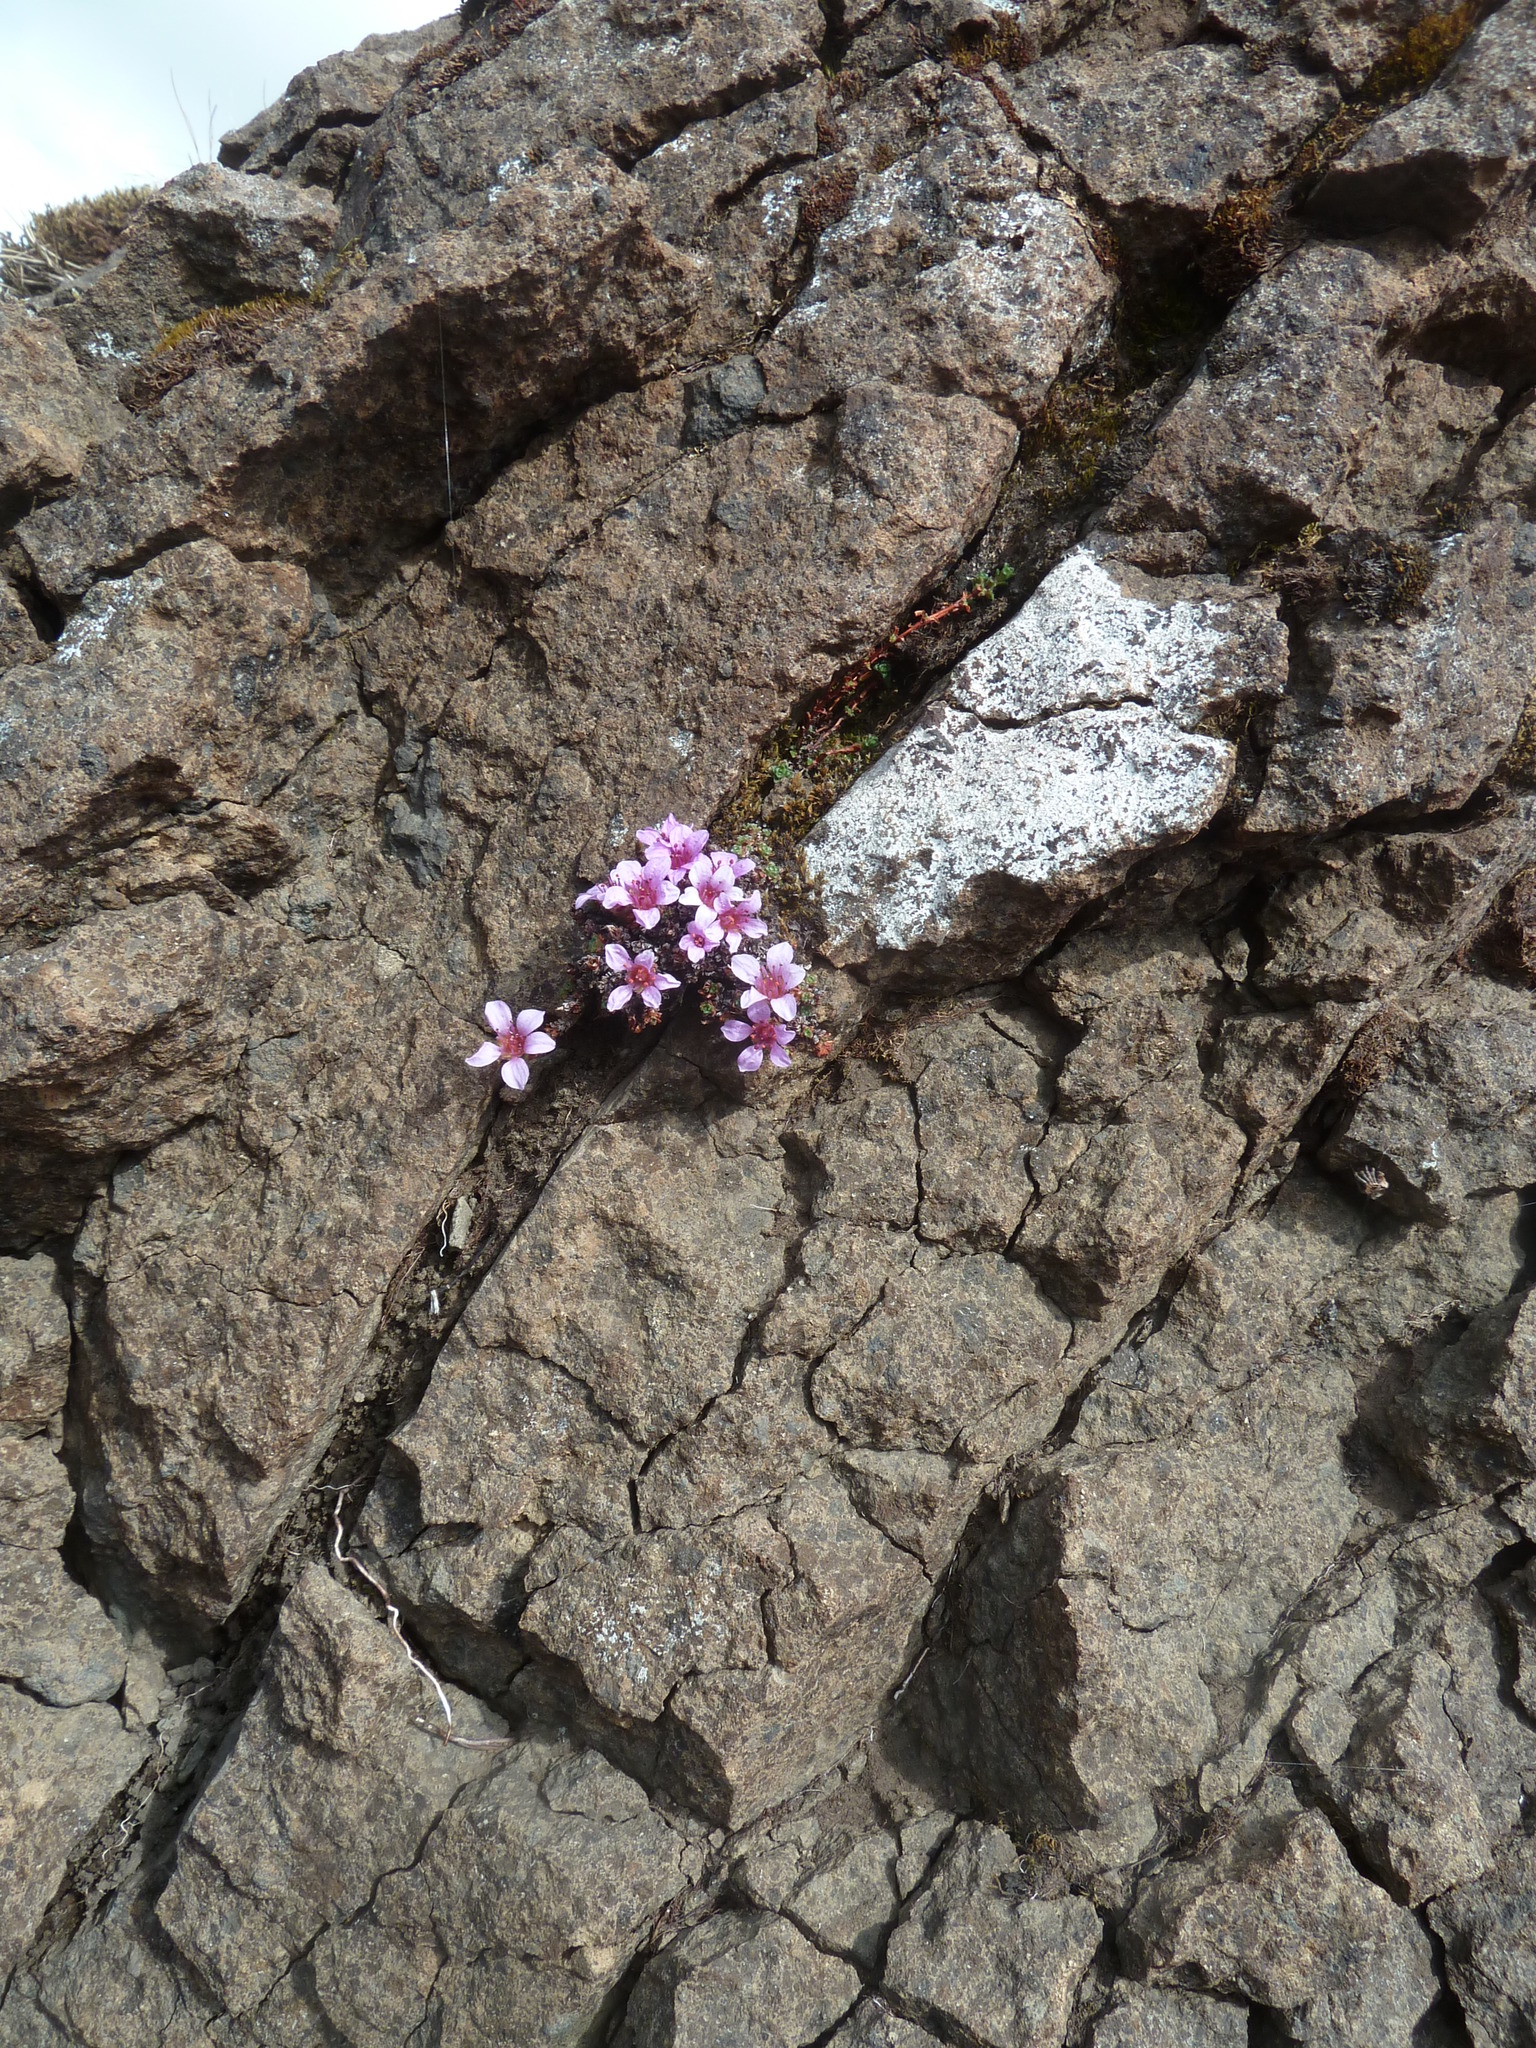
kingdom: Plantae
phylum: Tracheophyta
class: Magnoliopsida
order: Saxifragales
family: Saxifragaceae
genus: Saxifraga
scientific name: Saxifraga oppositifolia
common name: Purple saxifrage
